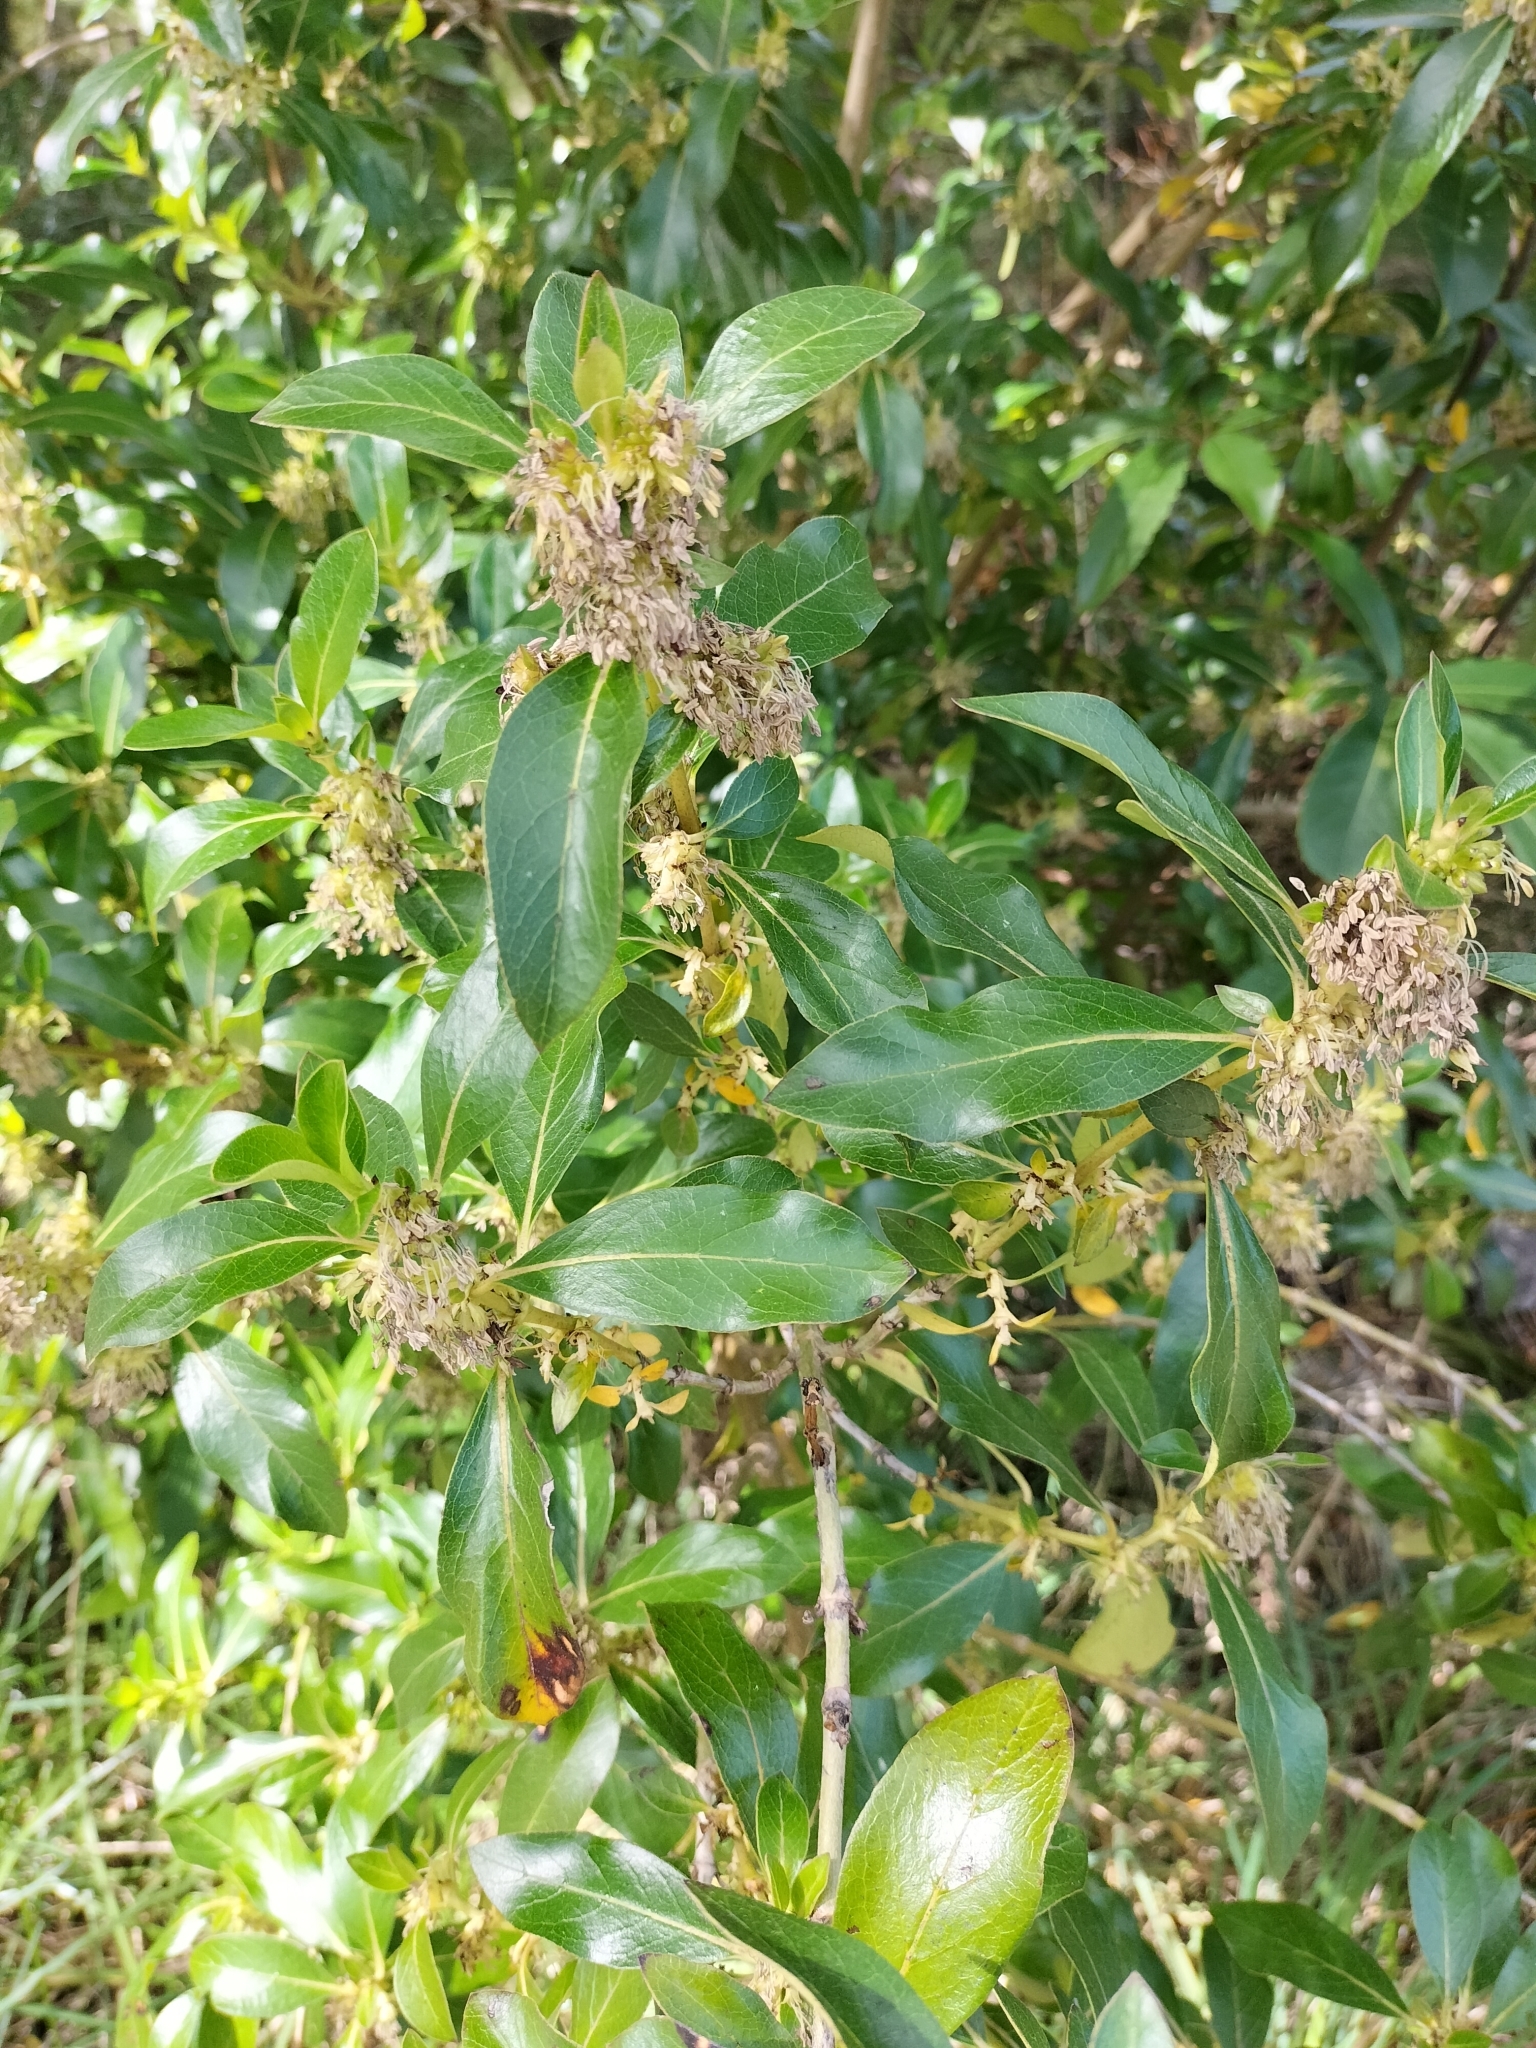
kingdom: Plantae
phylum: Tracheophyta
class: Magnoliopsida
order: Gentianales
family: Rubiaceae
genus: Coprosma
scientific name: Coprosma robusta
